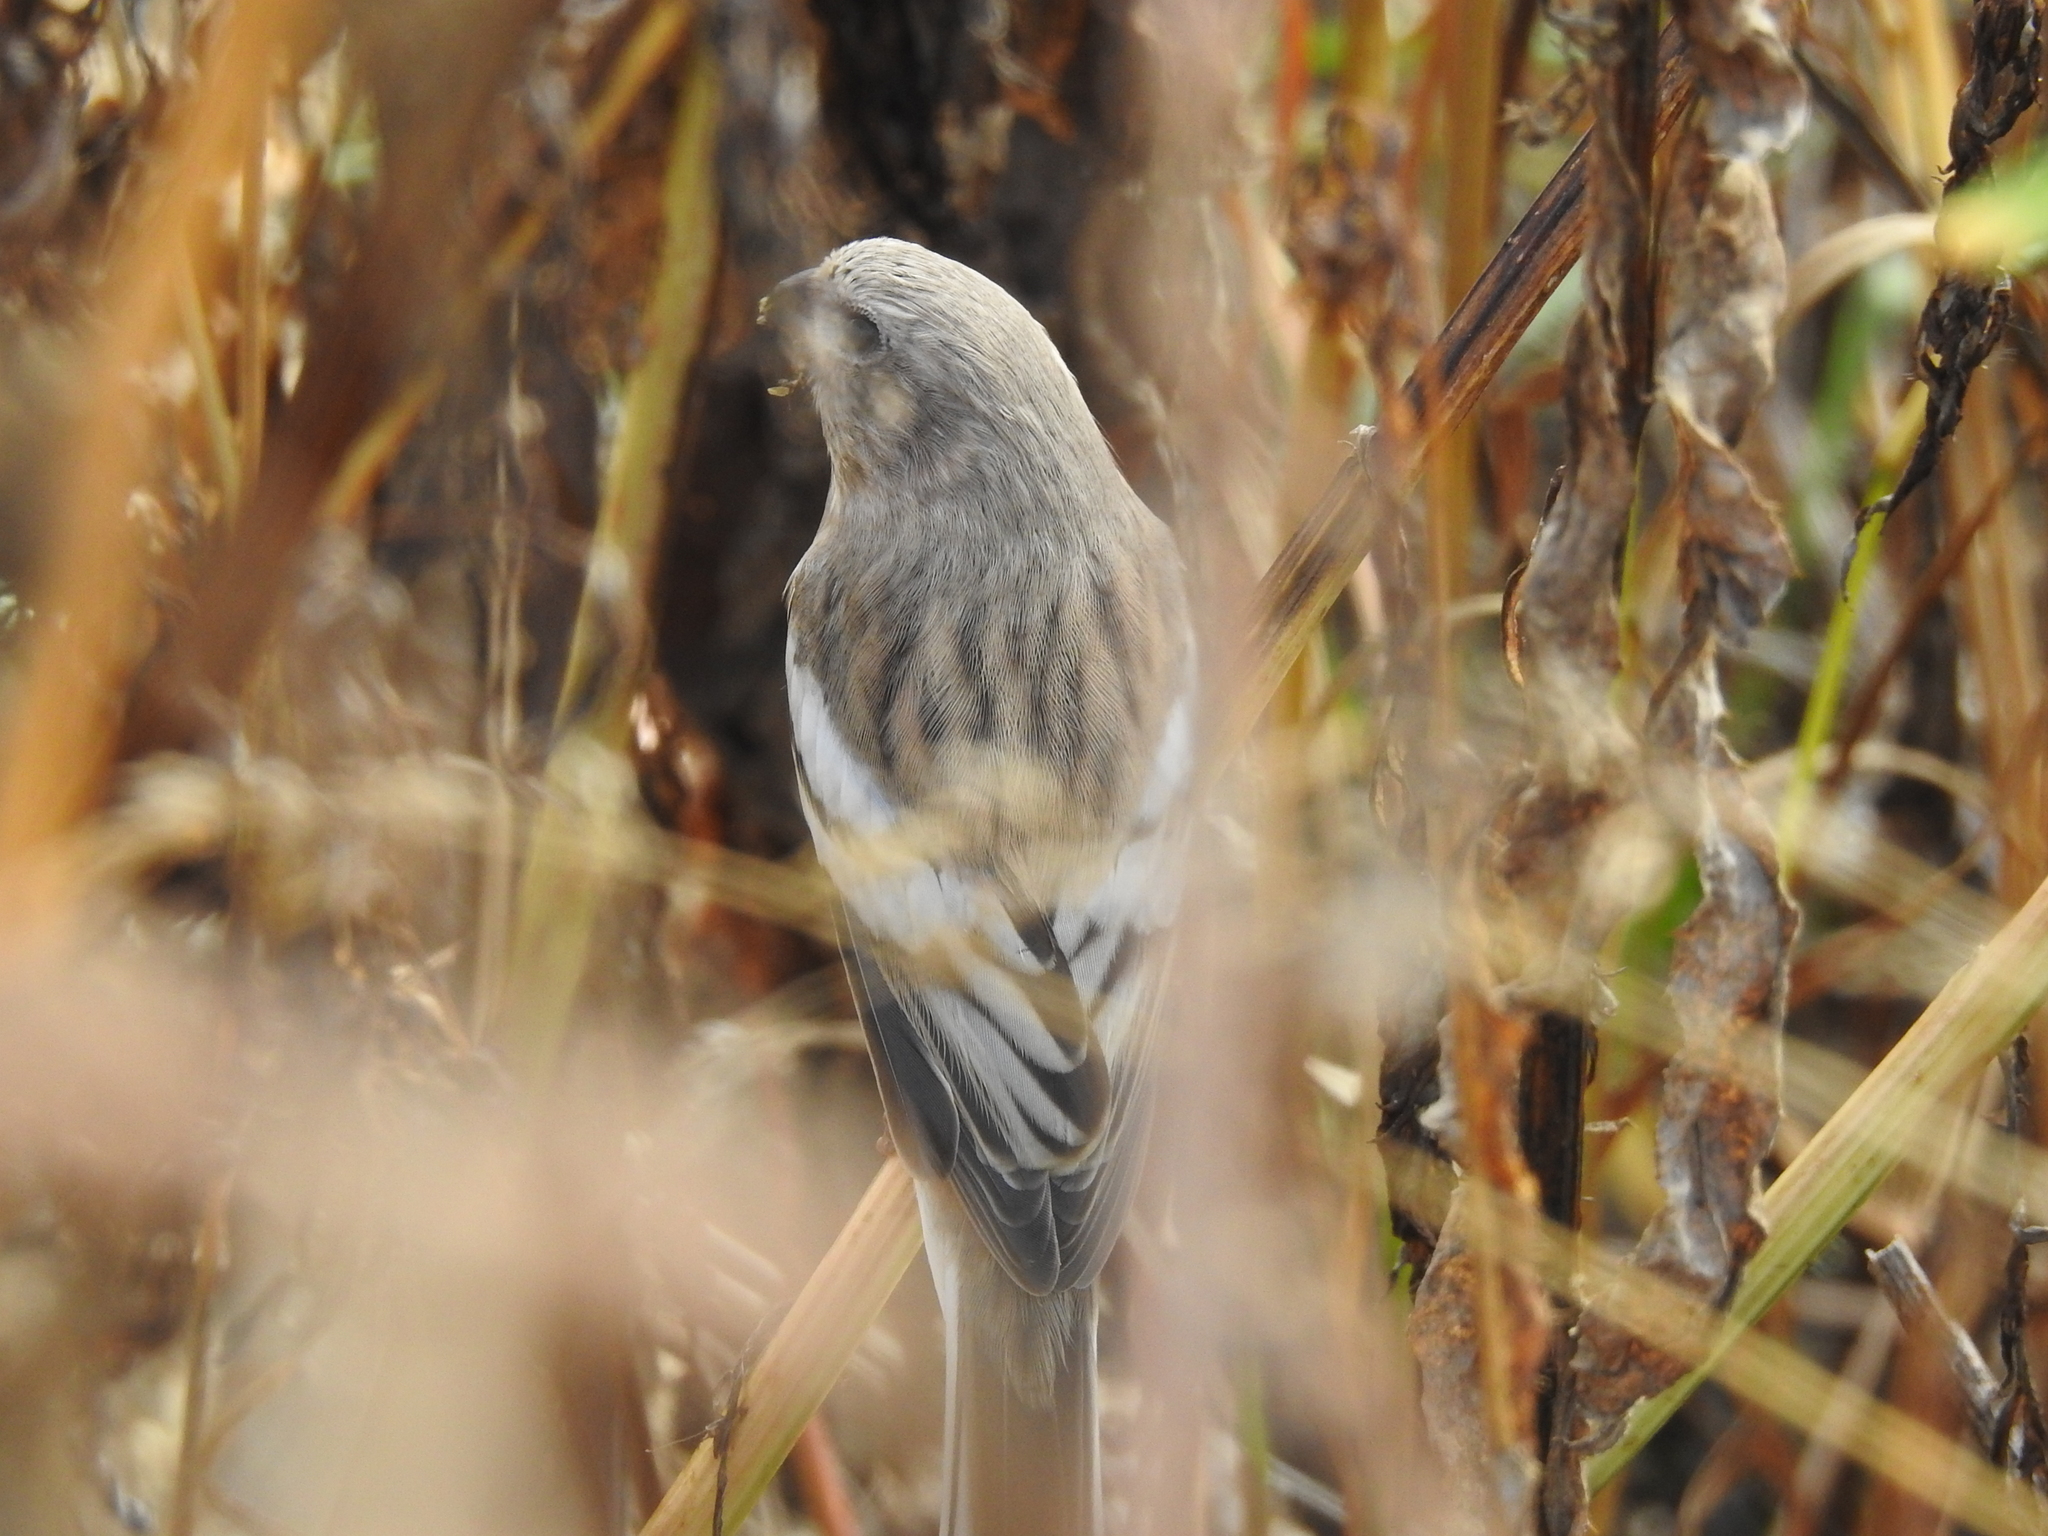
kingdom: Animalia
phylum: Chordata
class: Aves
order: Passeriformes
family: Fringillidae
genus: Carpodacus
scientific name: Carpodacus sibiricus
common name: Long-tailed rosefinch
